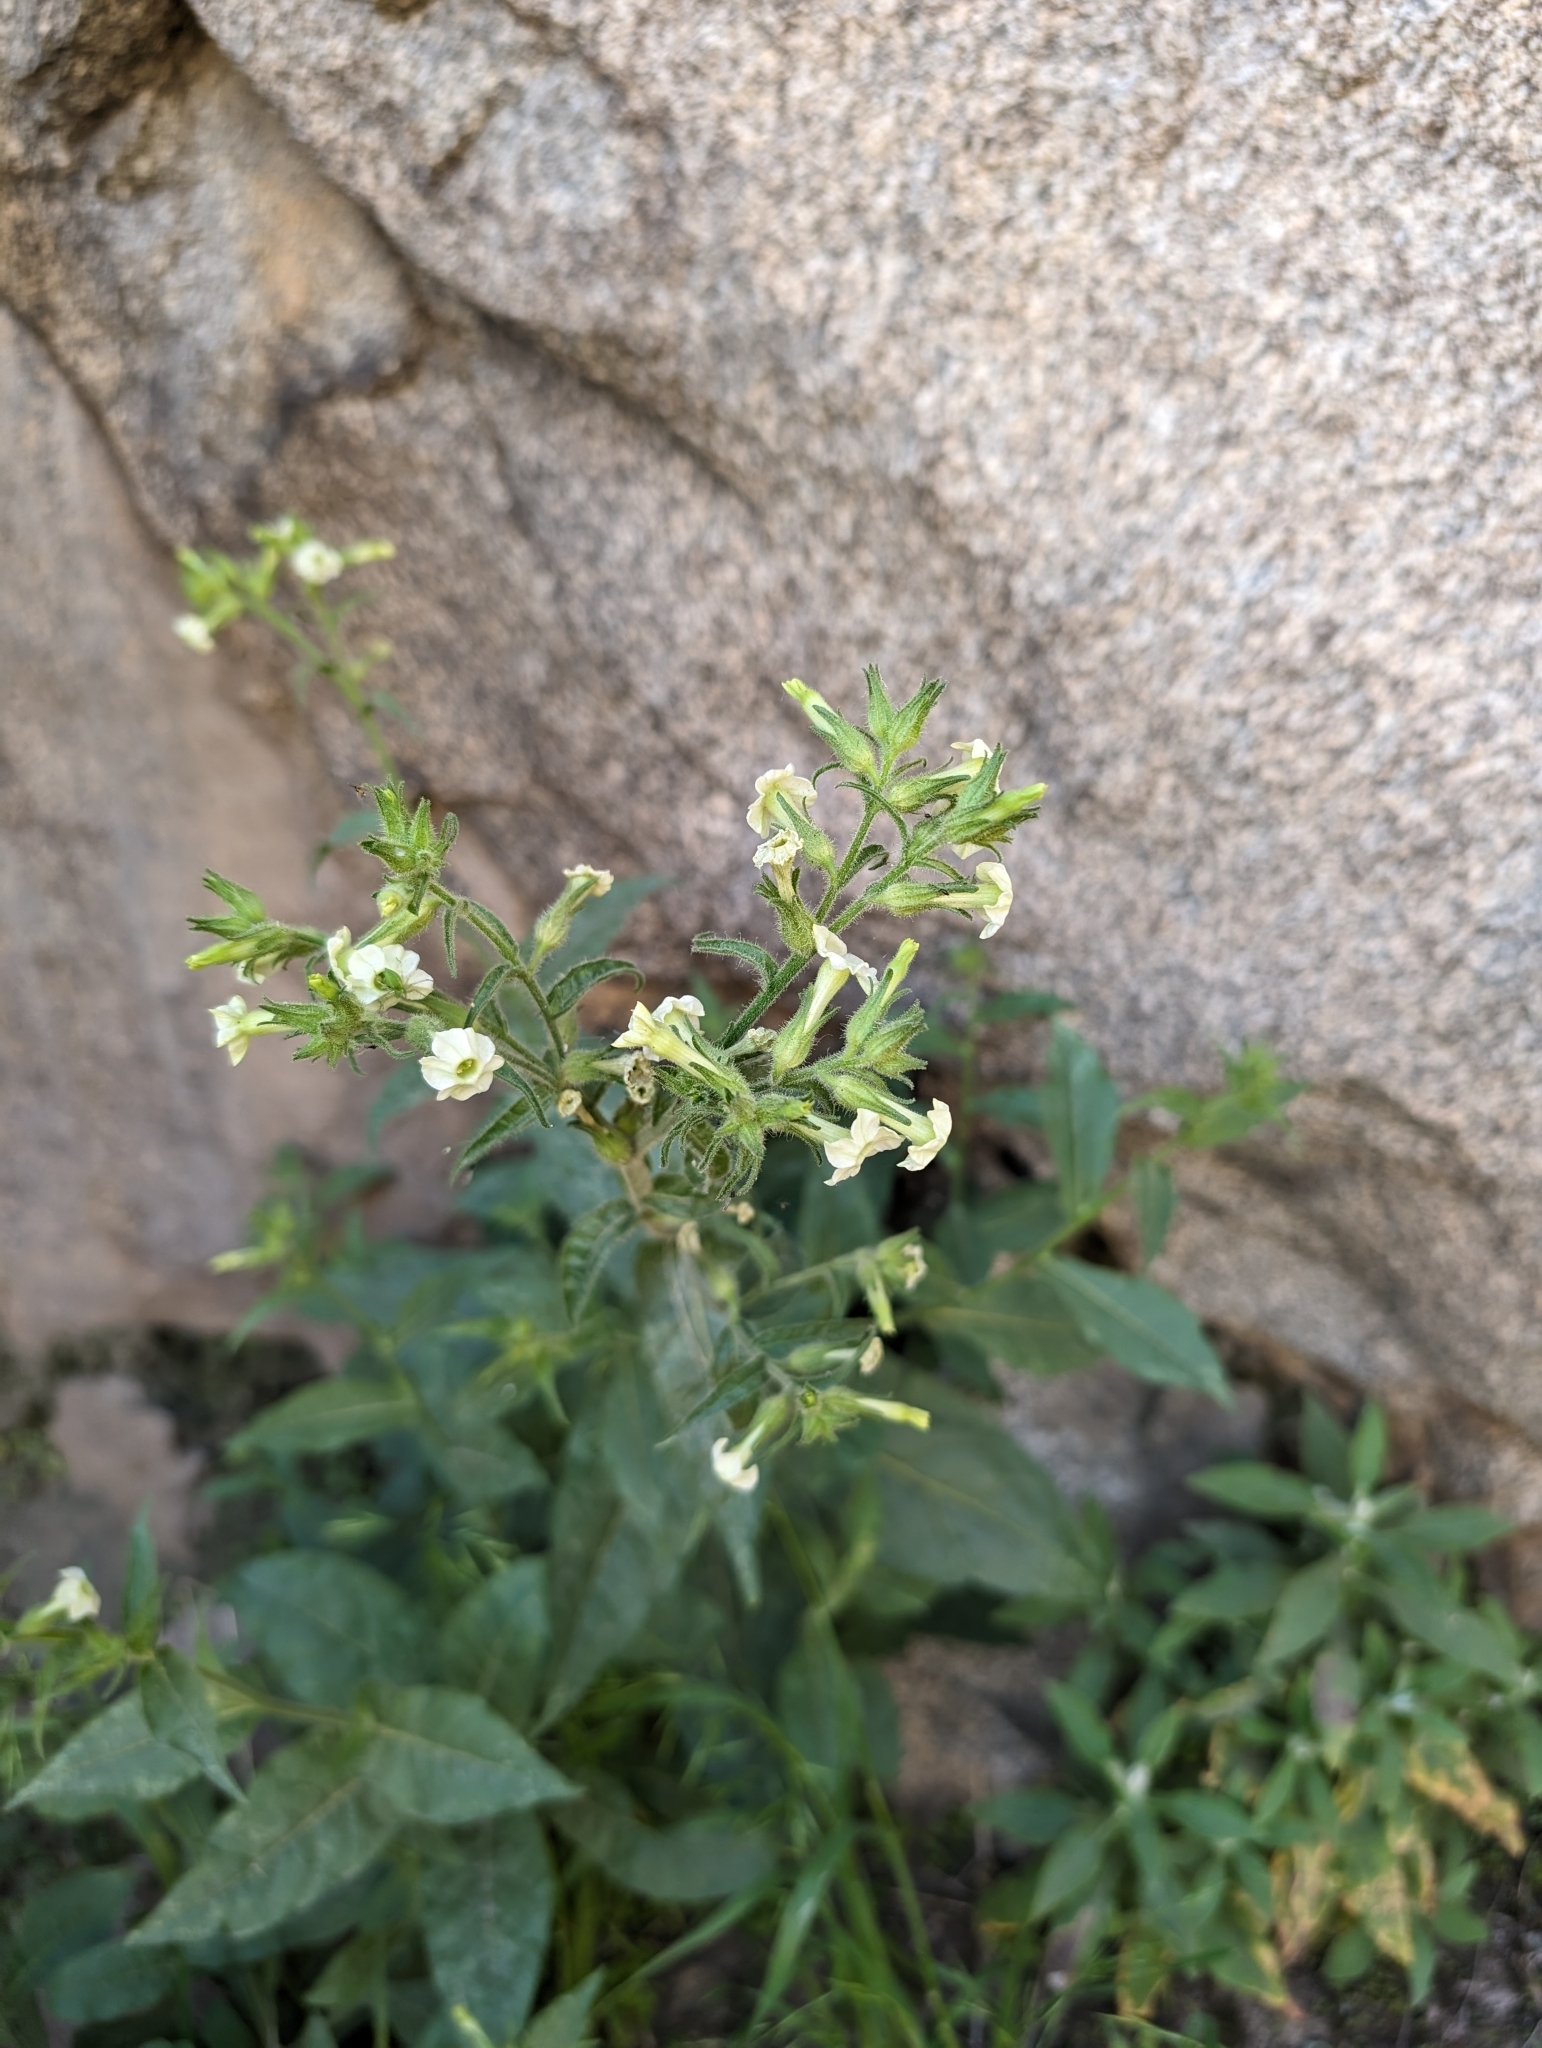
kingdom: Plantae
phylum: Tracheophyta
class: Magnoliopsida
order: Solanales
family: Solanaceae
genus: Nicotiana
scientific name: Nicotiana obtusifolia
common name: Desert tobacco
